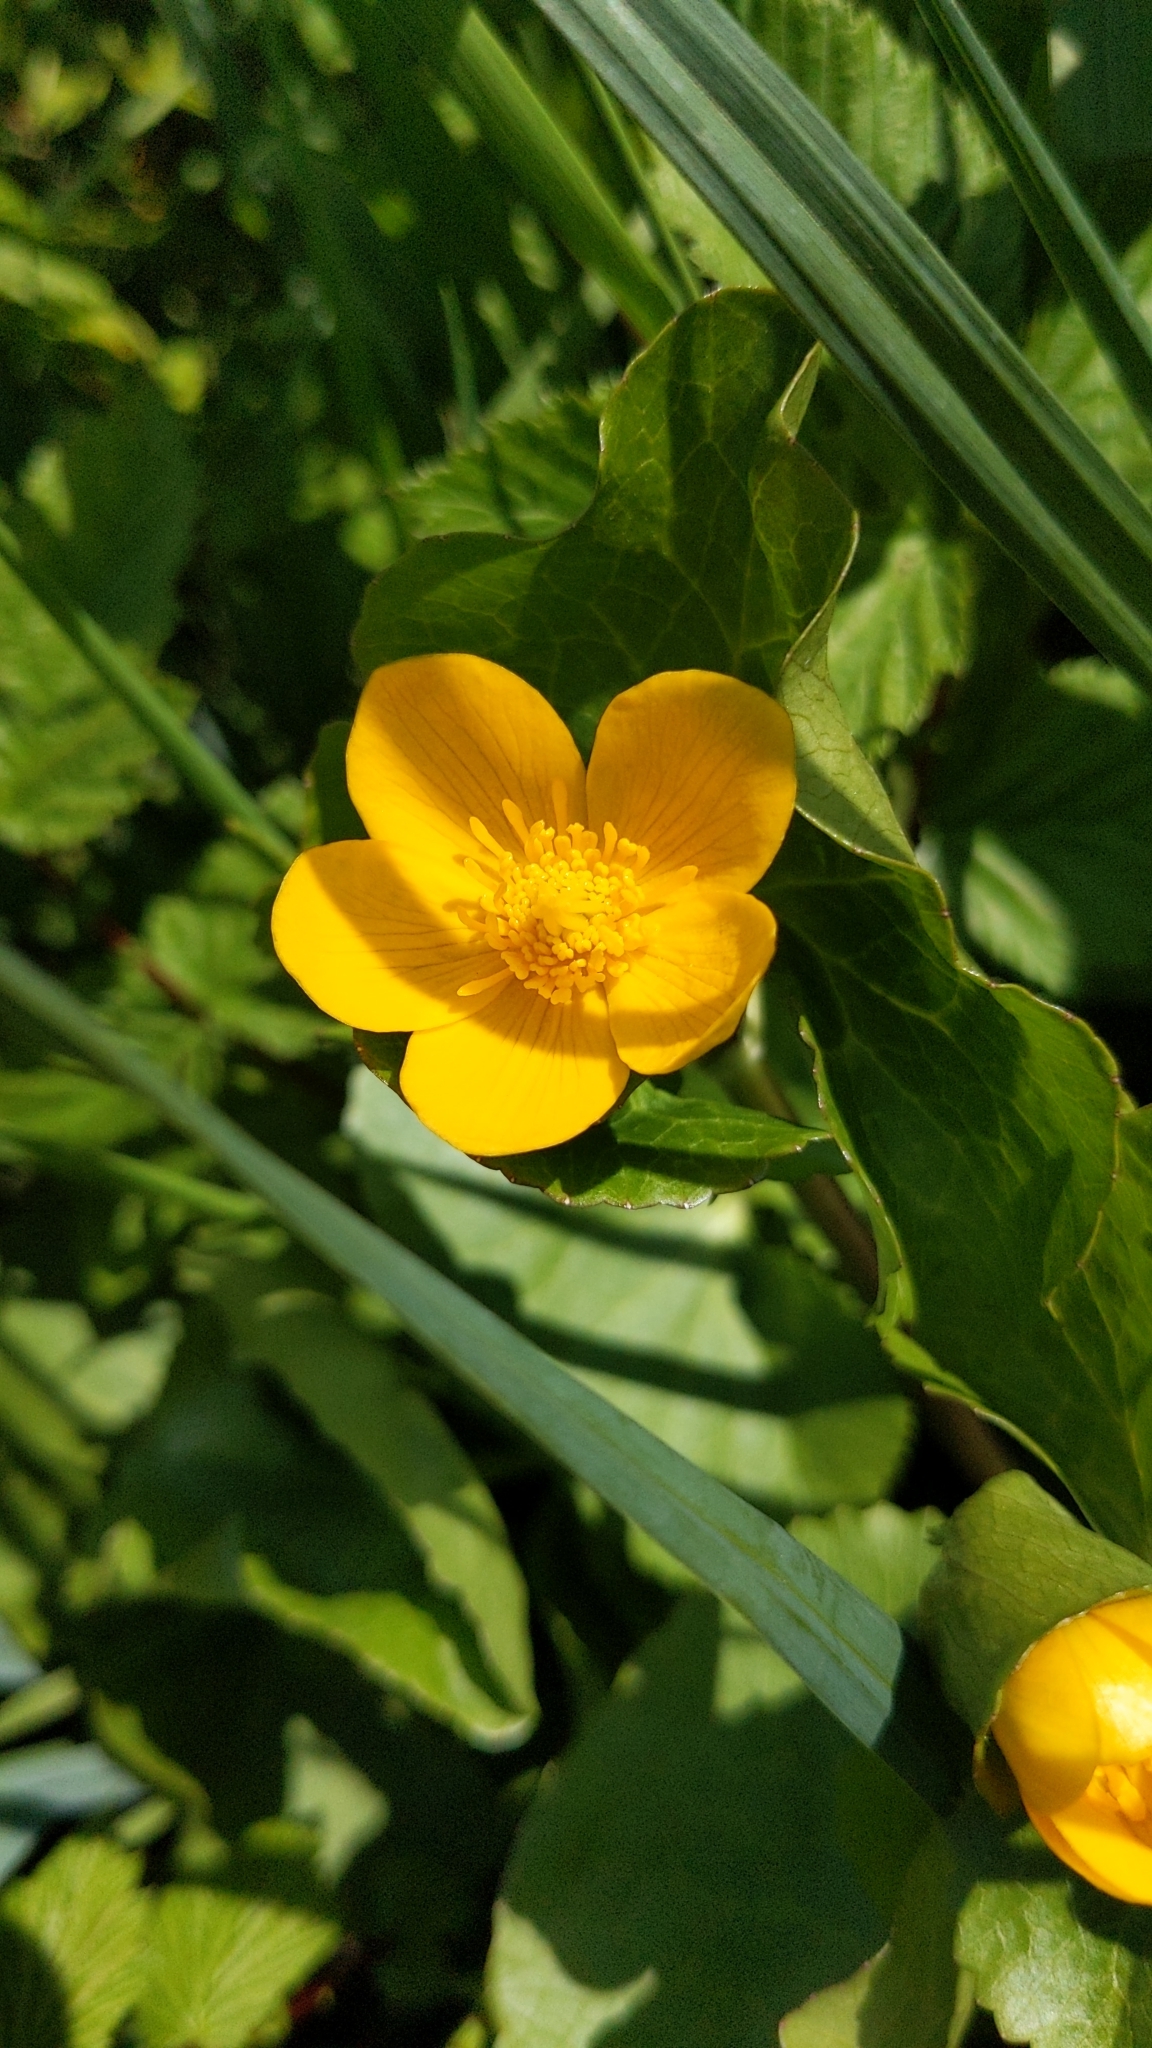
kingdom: Plantae
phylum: Tracheophyta
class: Magnoliopsida
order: Ranunculales
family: Ranunculaceae
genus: Caltha
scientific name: Caltha palustris
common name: Marsh marigold
